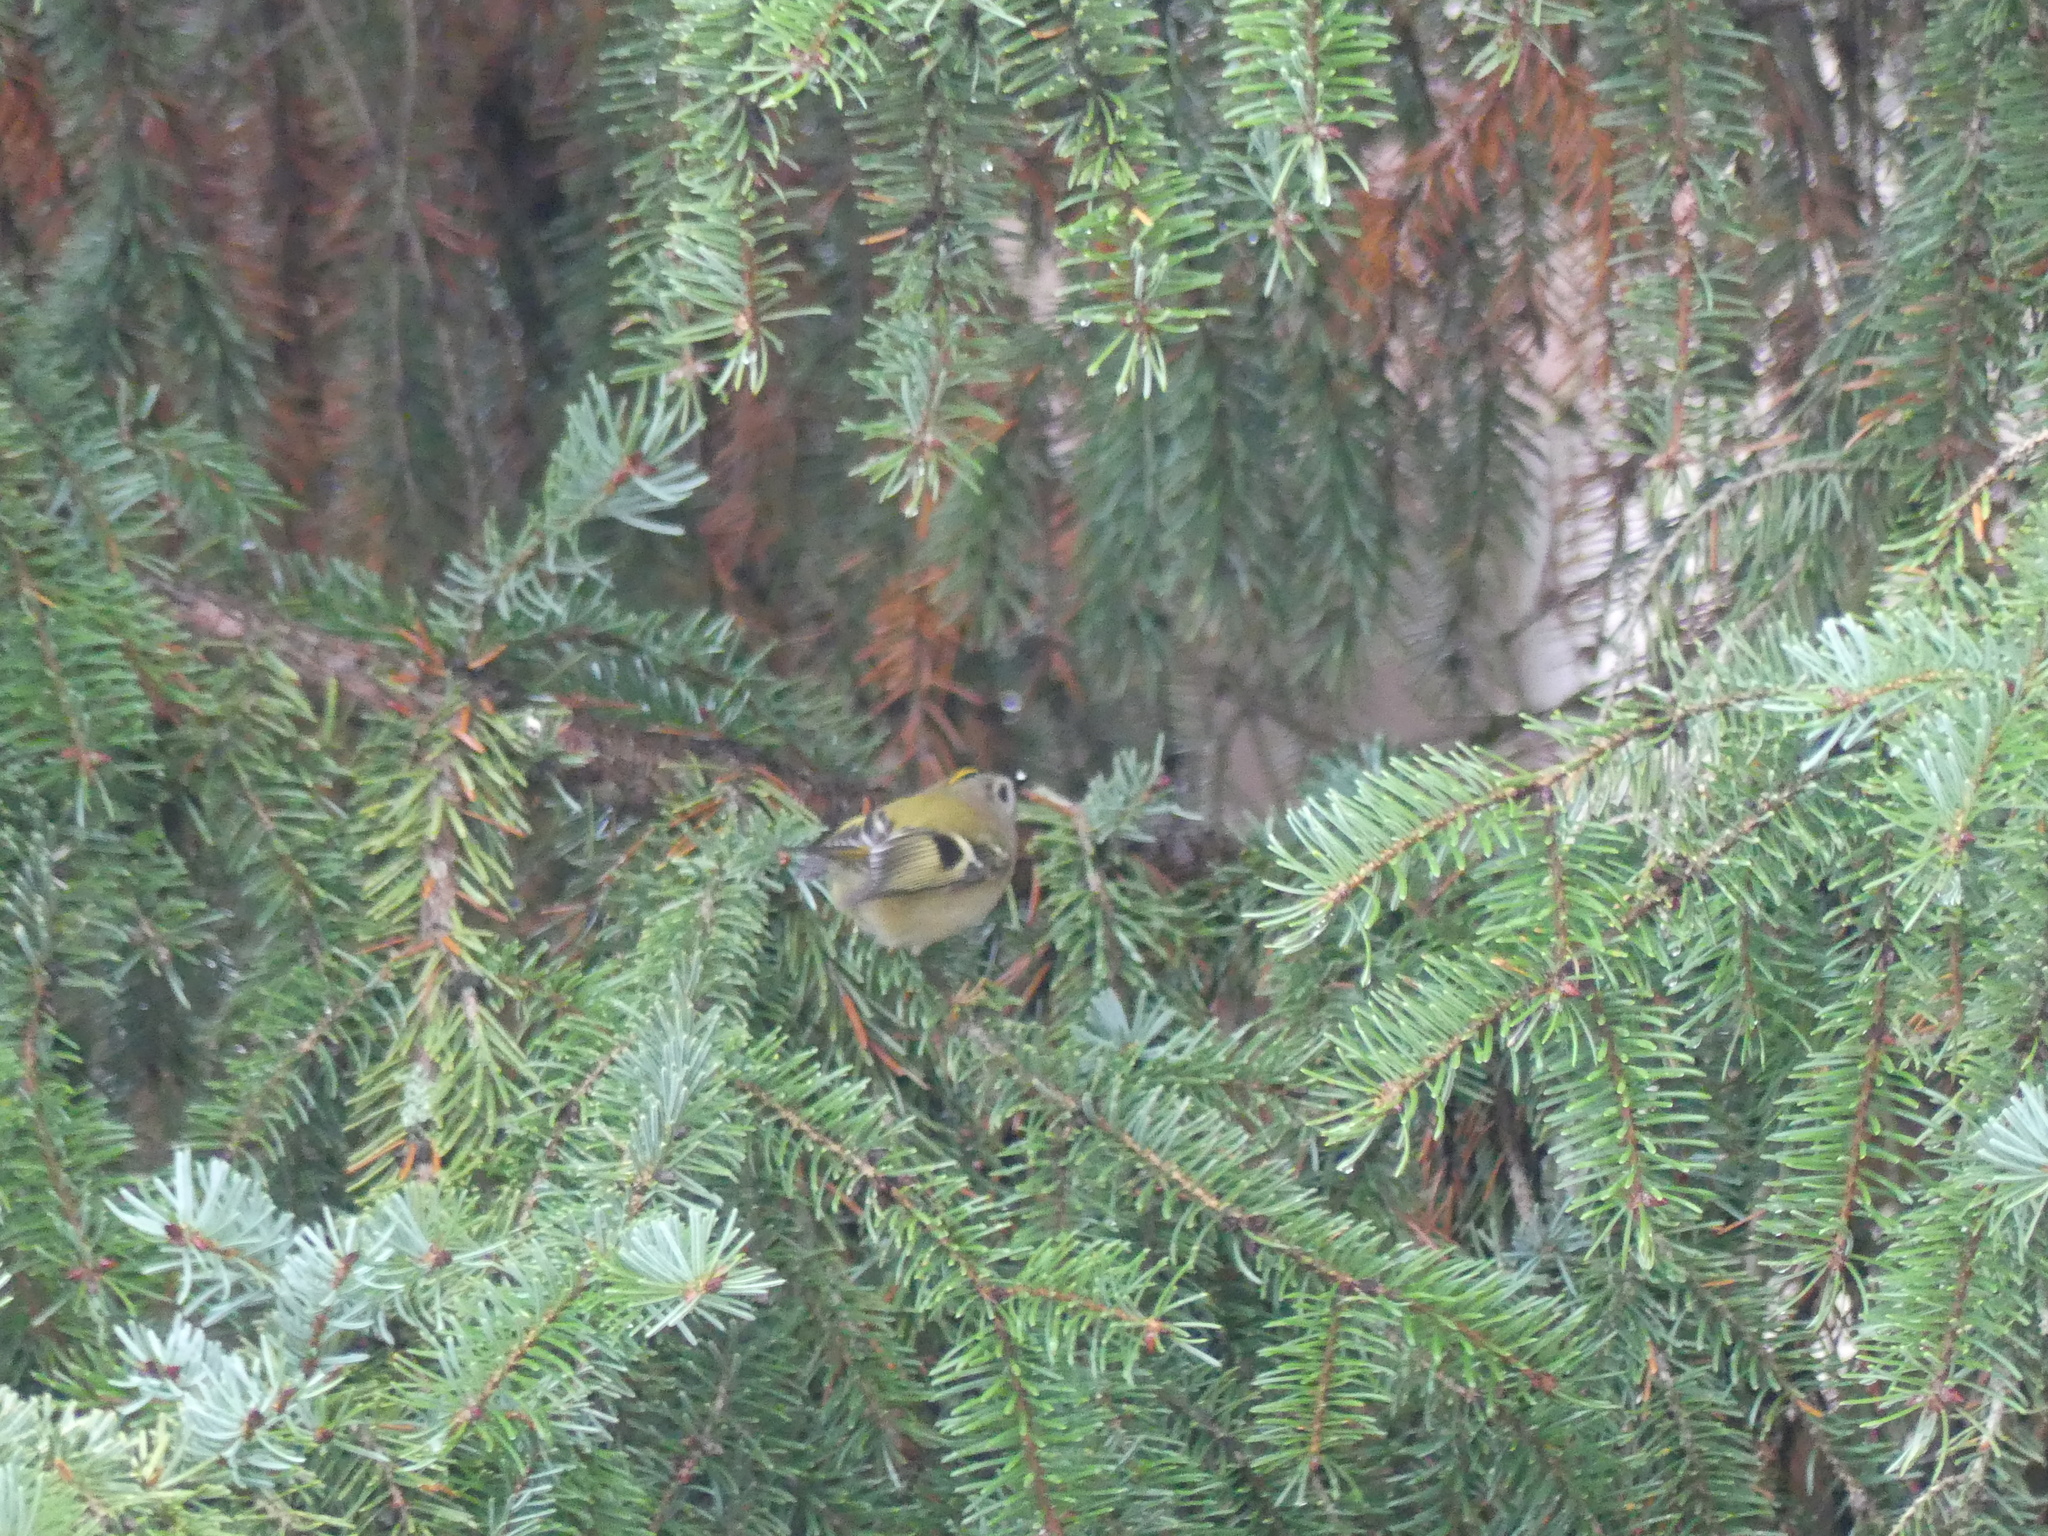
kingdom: Animalia
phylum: Chordata
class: Aves
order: Passeriformes
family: Regulidae
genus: Regulus
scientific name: Regulus regulus
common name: Goldcrest
